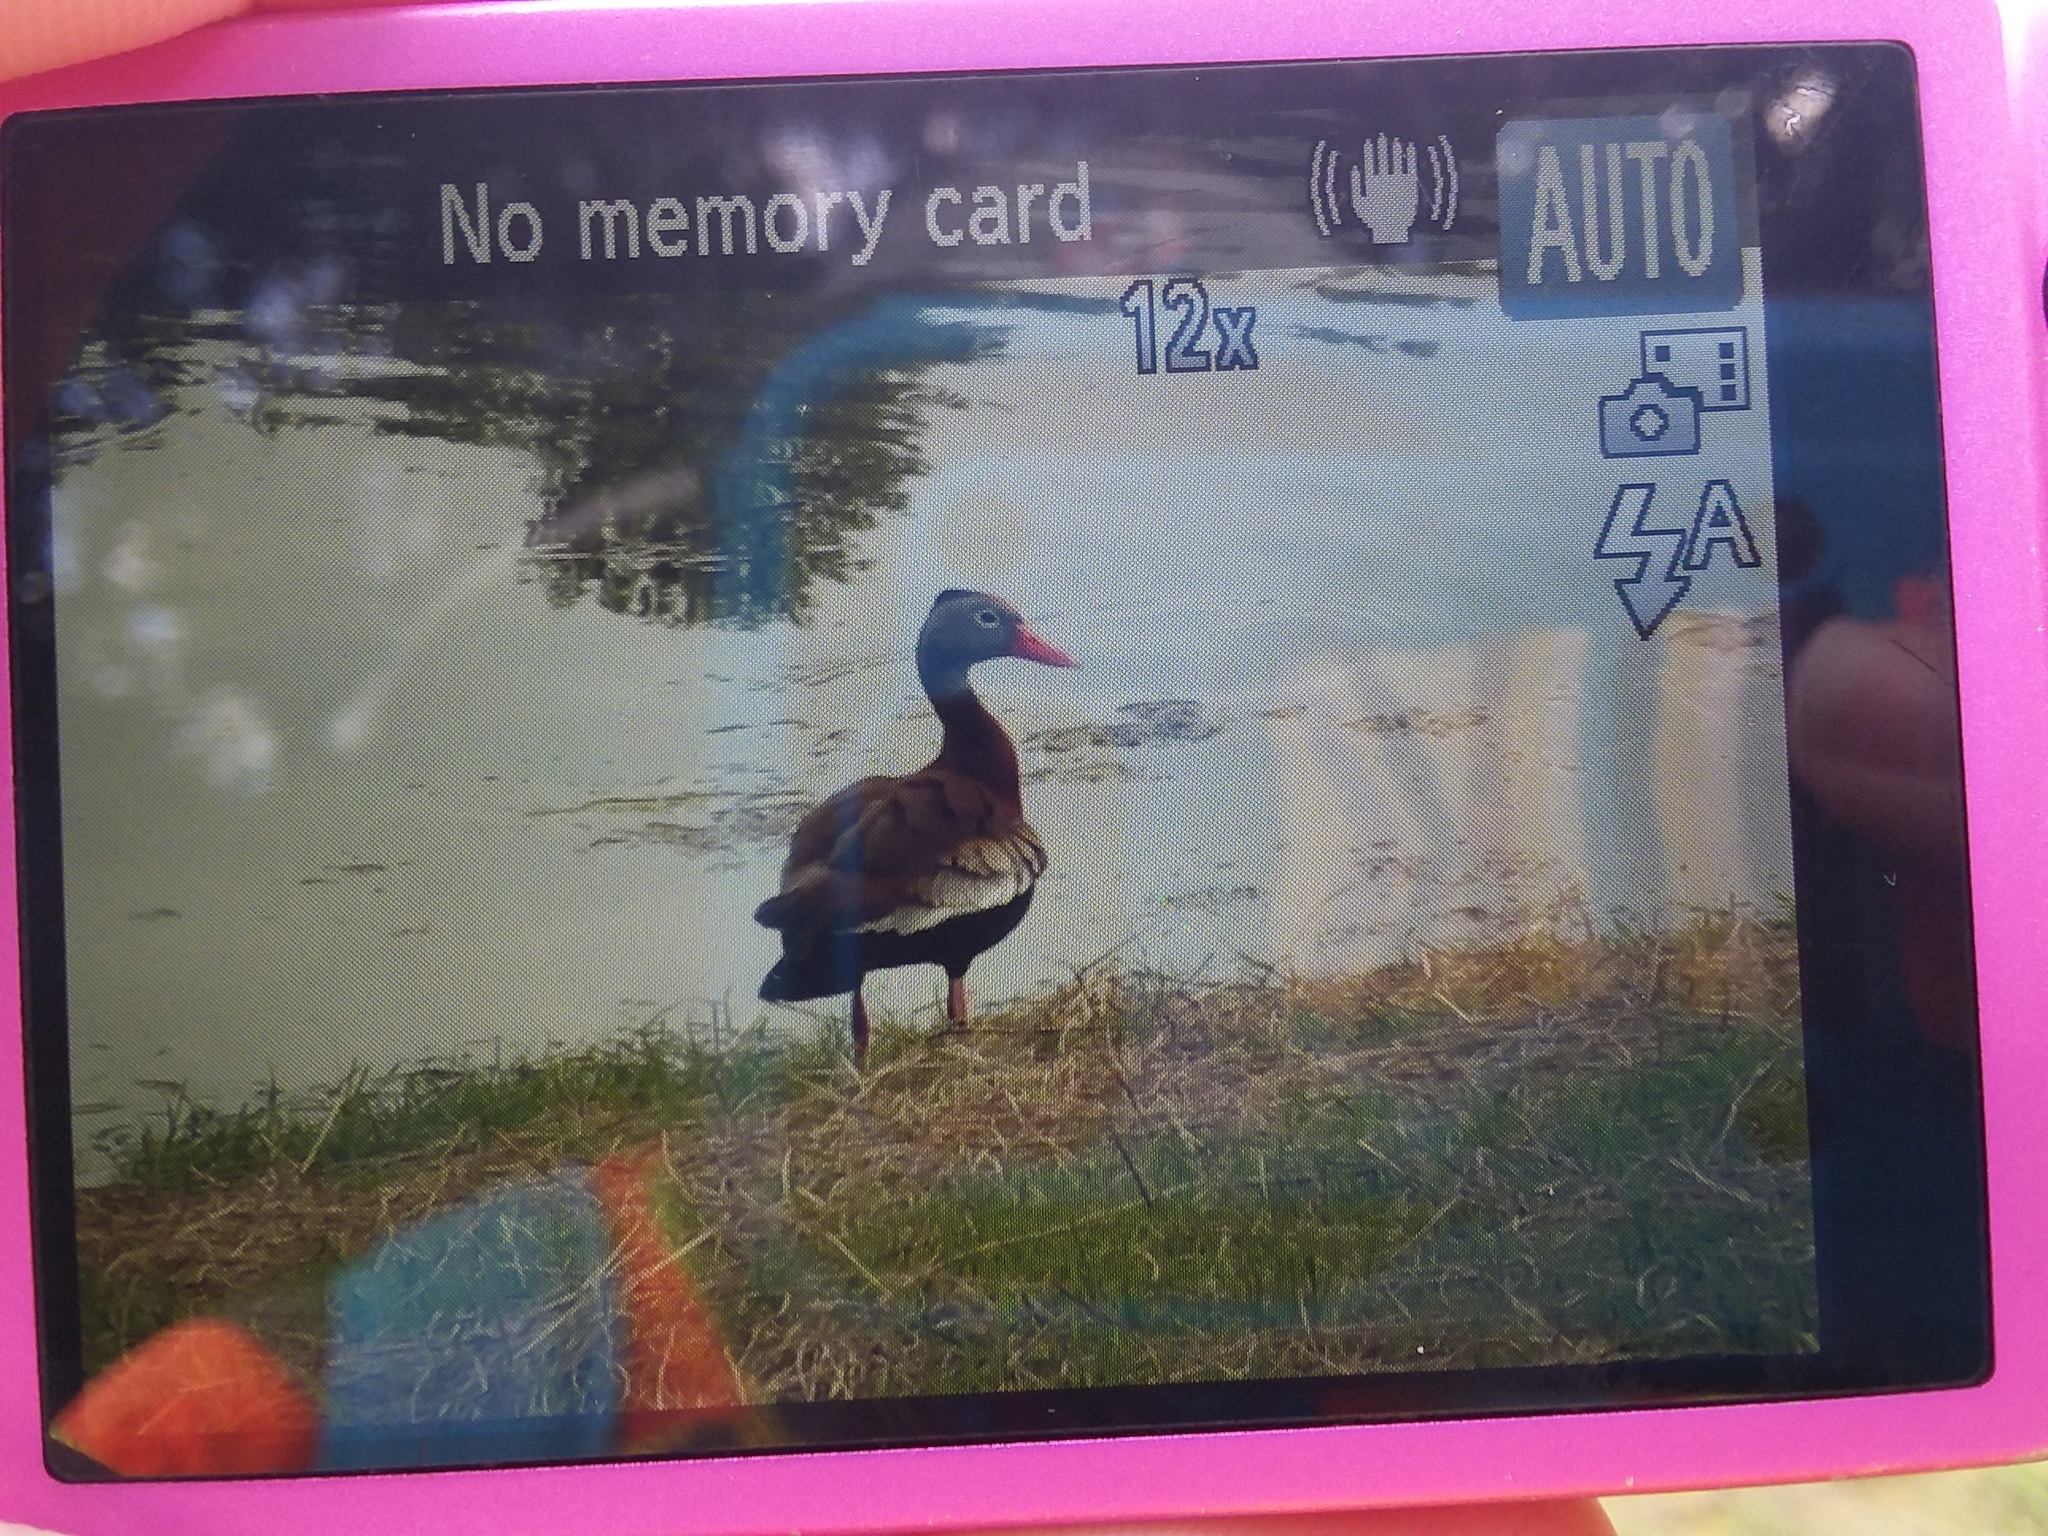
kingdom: Animalia
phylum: Chordata
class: Aves
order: Anseriformes
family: Anatidae
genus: Dendrocygna
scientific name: Dendrocygna autumnalis
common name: Black-bellied whistling duck
